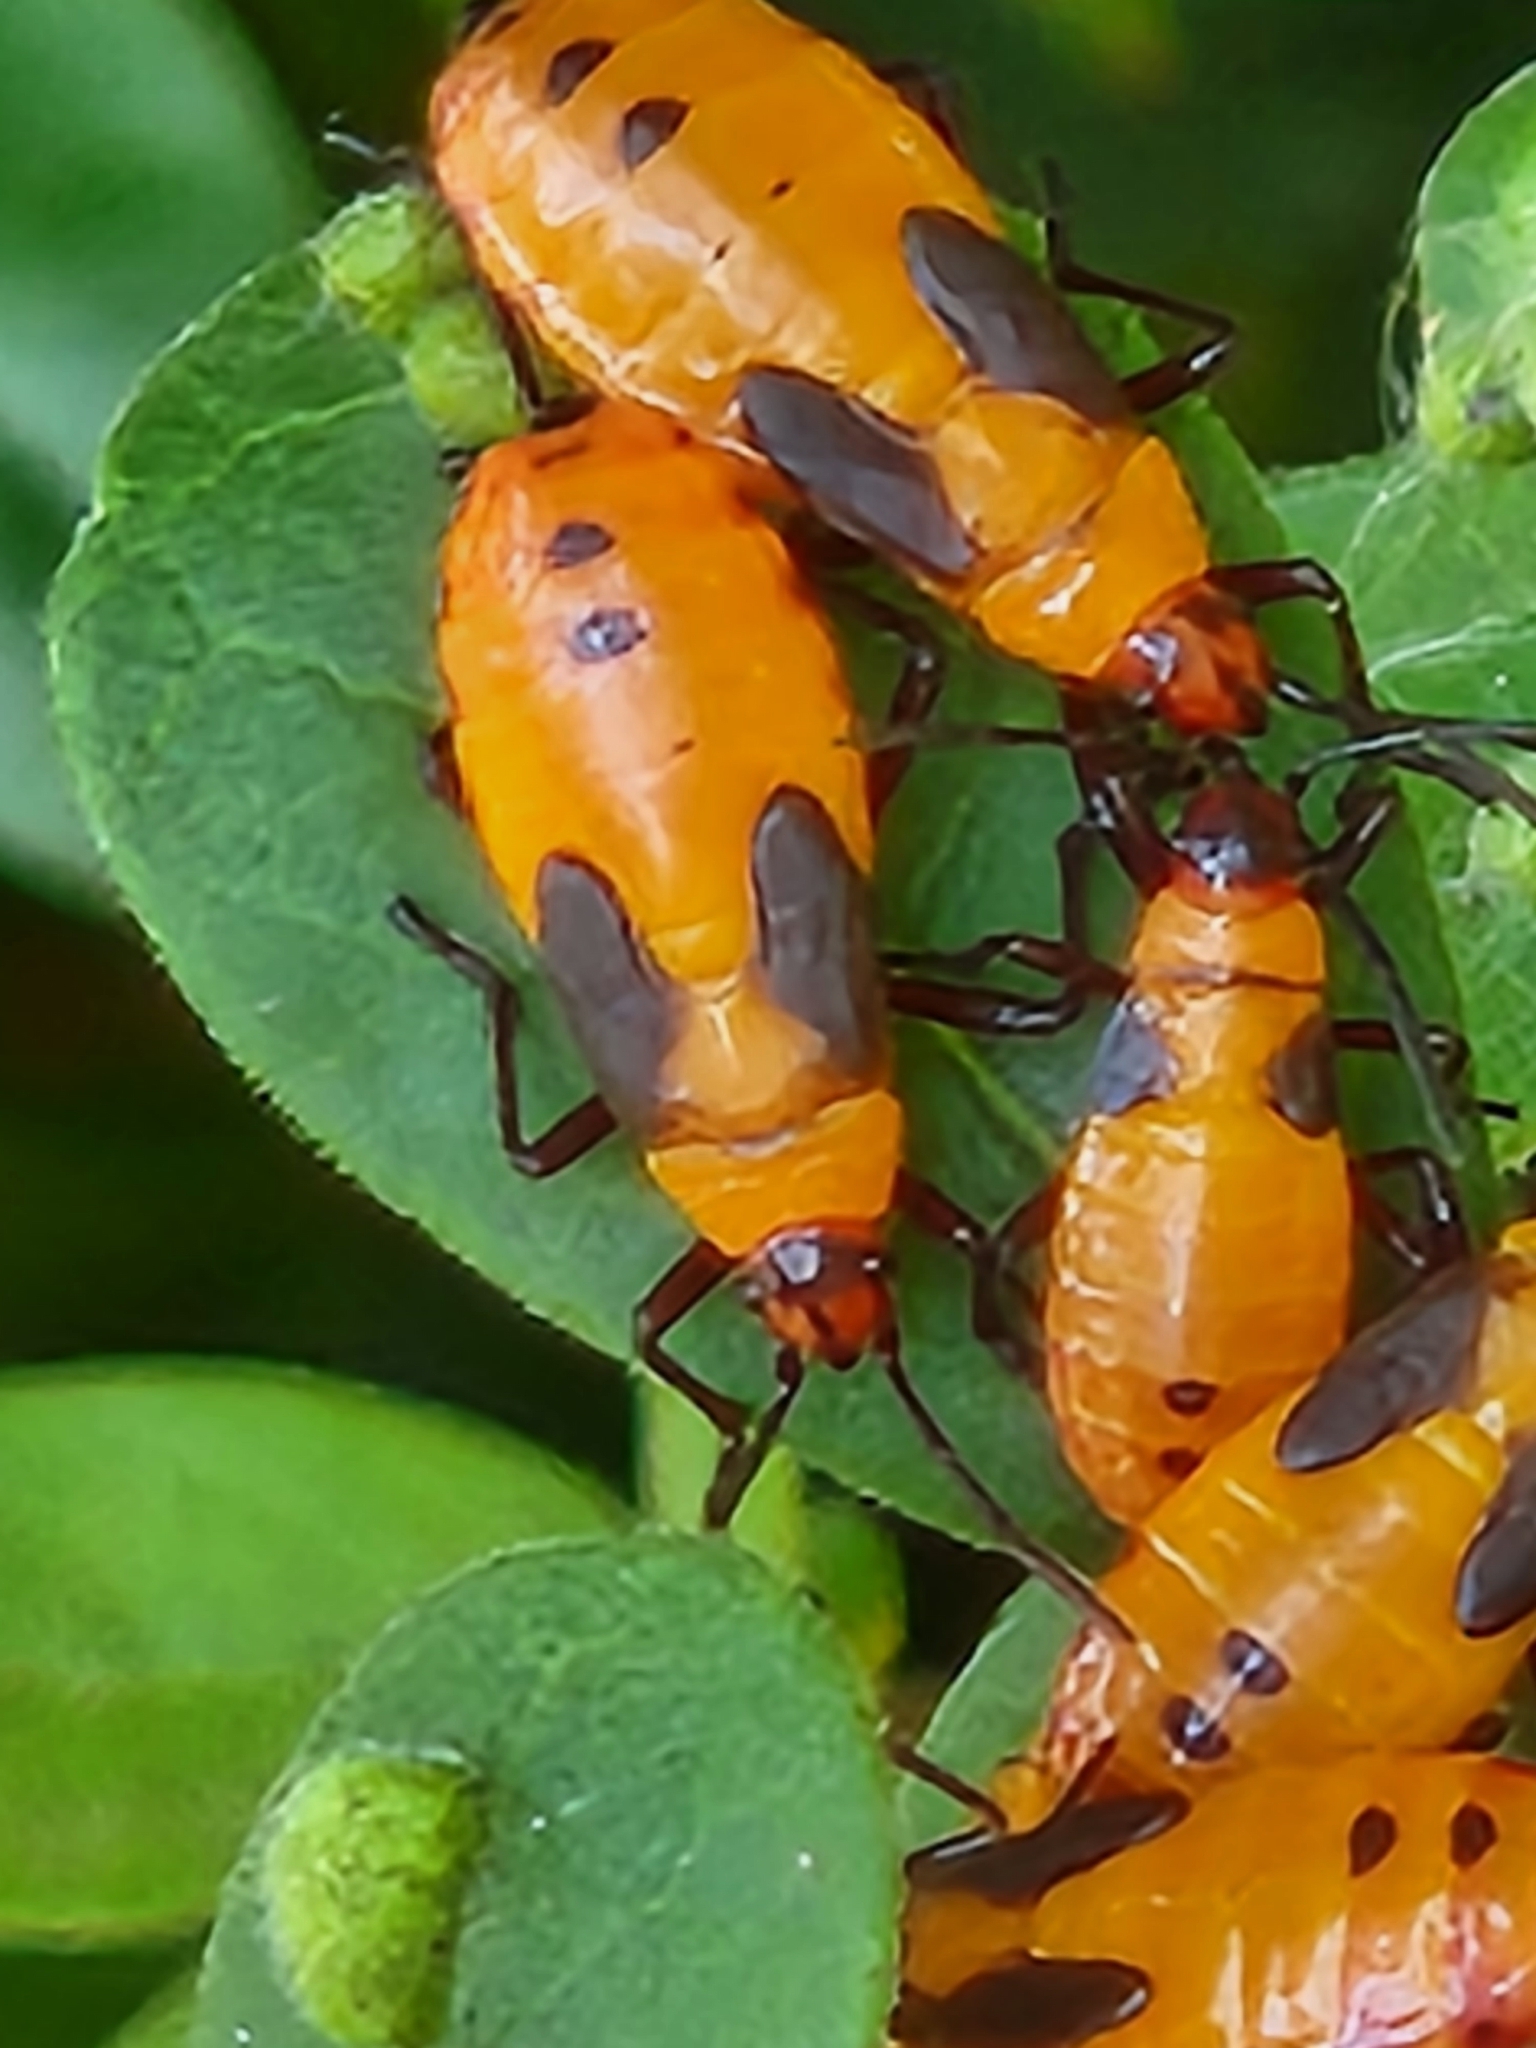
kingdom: Animalia
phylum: Arthropoda
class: Insecta
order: Hemiptera
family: Lygaeidae
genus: Oncopeltus
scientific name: Oncopeltus fasciatus
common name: Large milkweed bug
